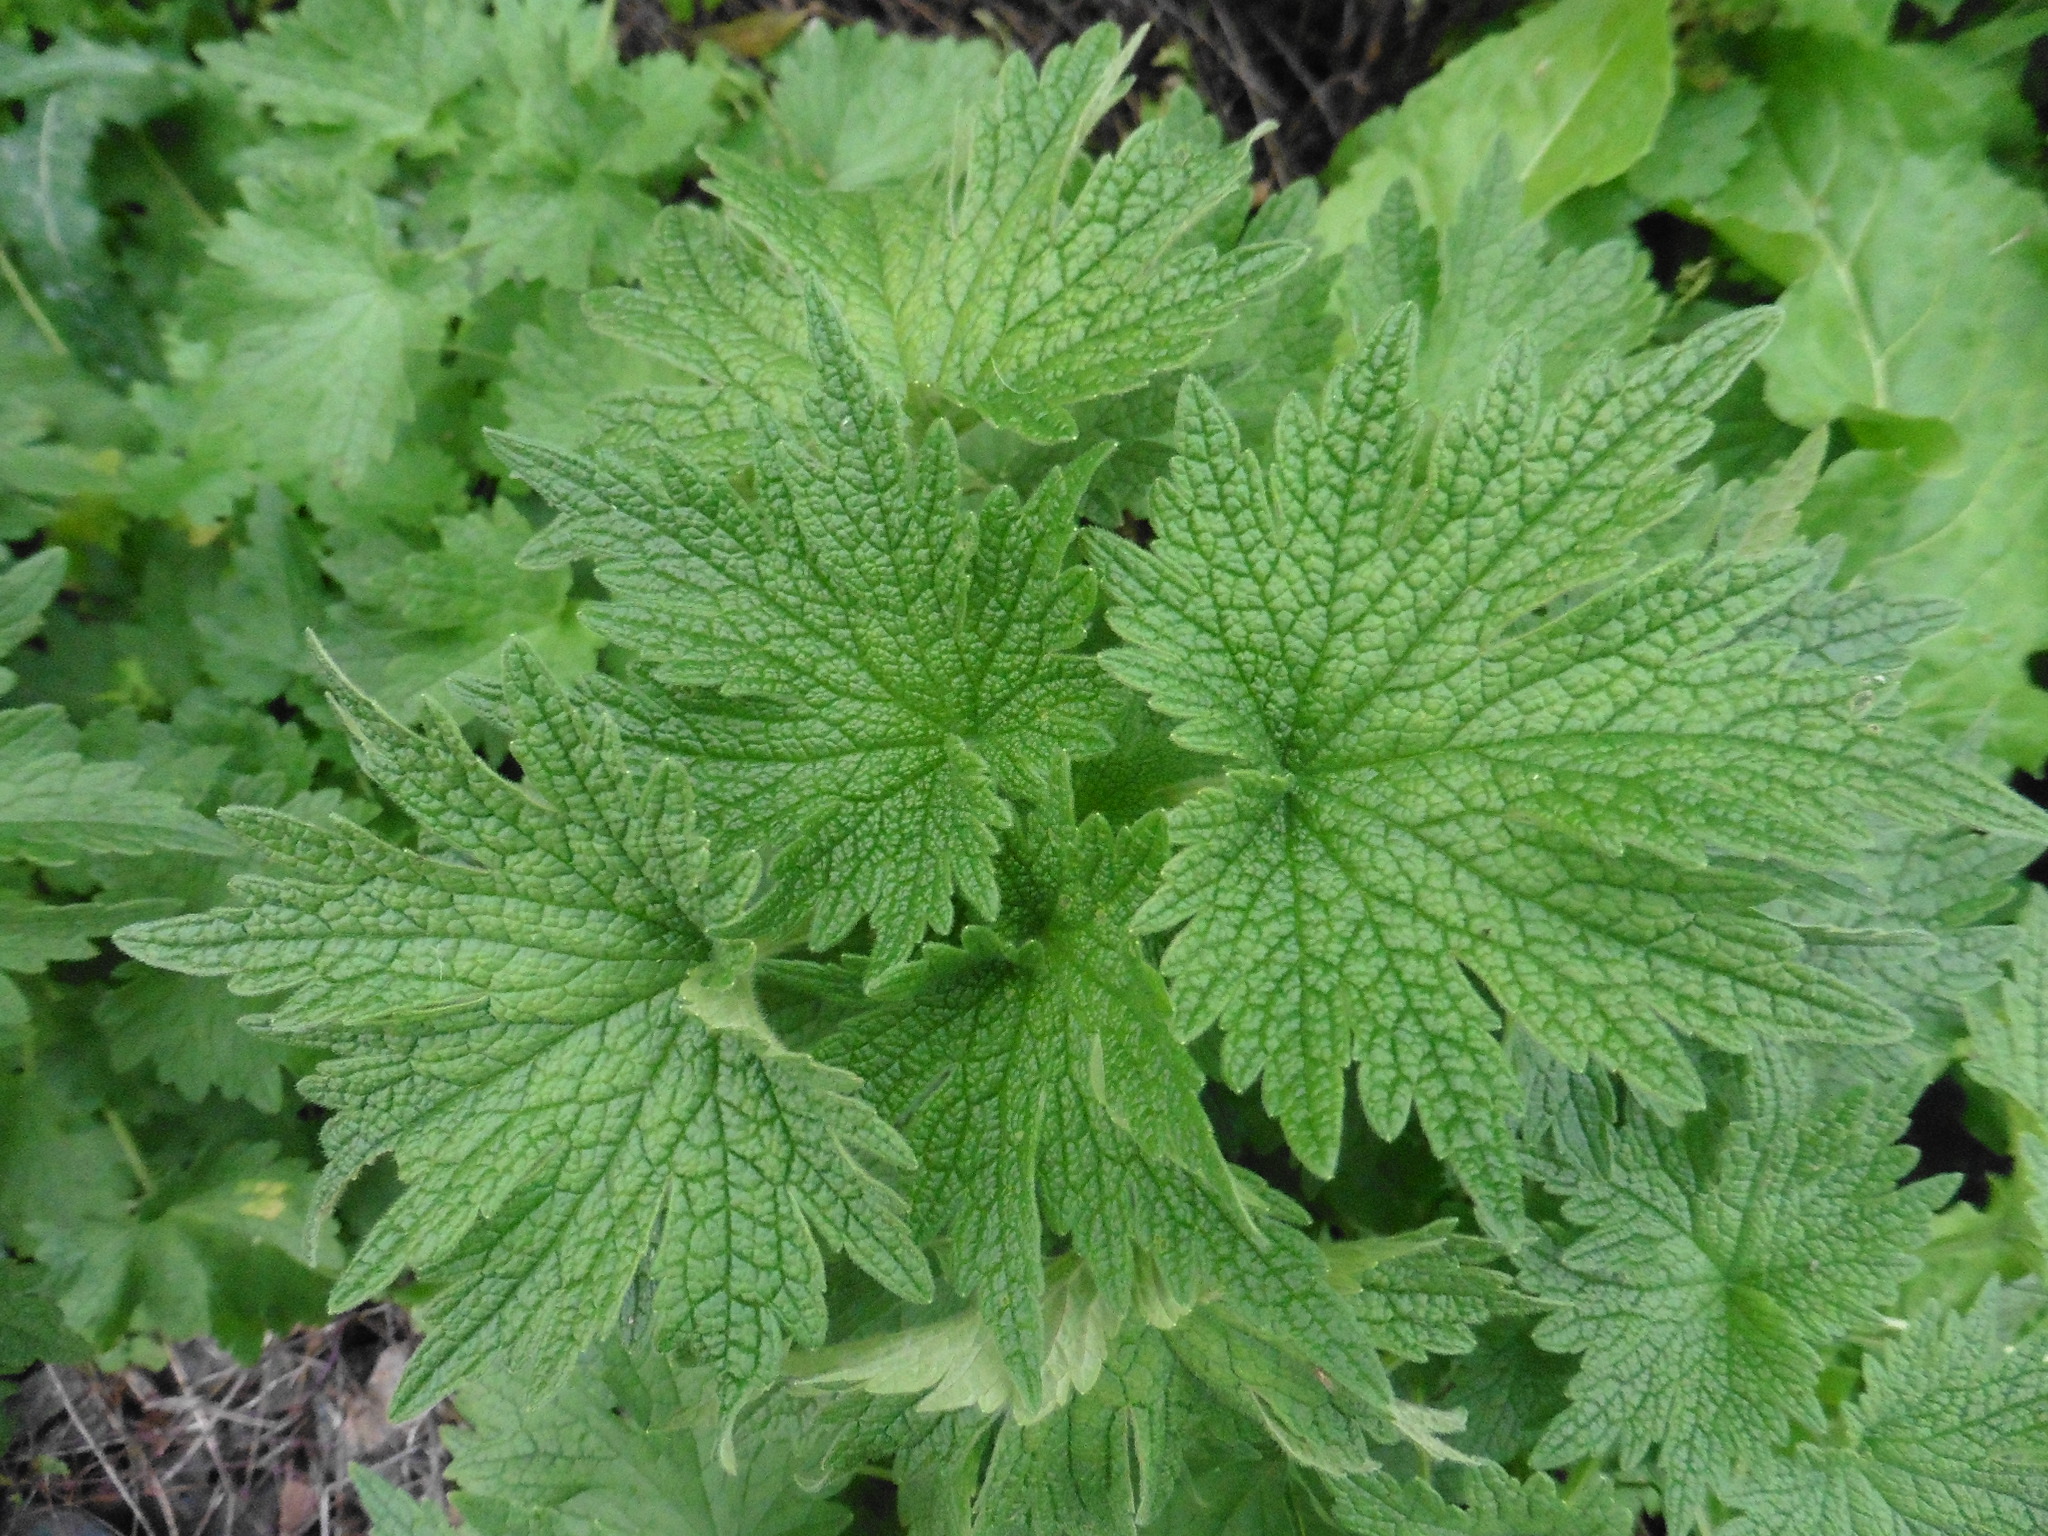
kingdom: Plantae
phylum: Tracheophyta
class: Magnoliopsida
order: Lamiales
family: Lamiaceae
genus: Leonurus
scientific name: Leonurus quinquelobatus
